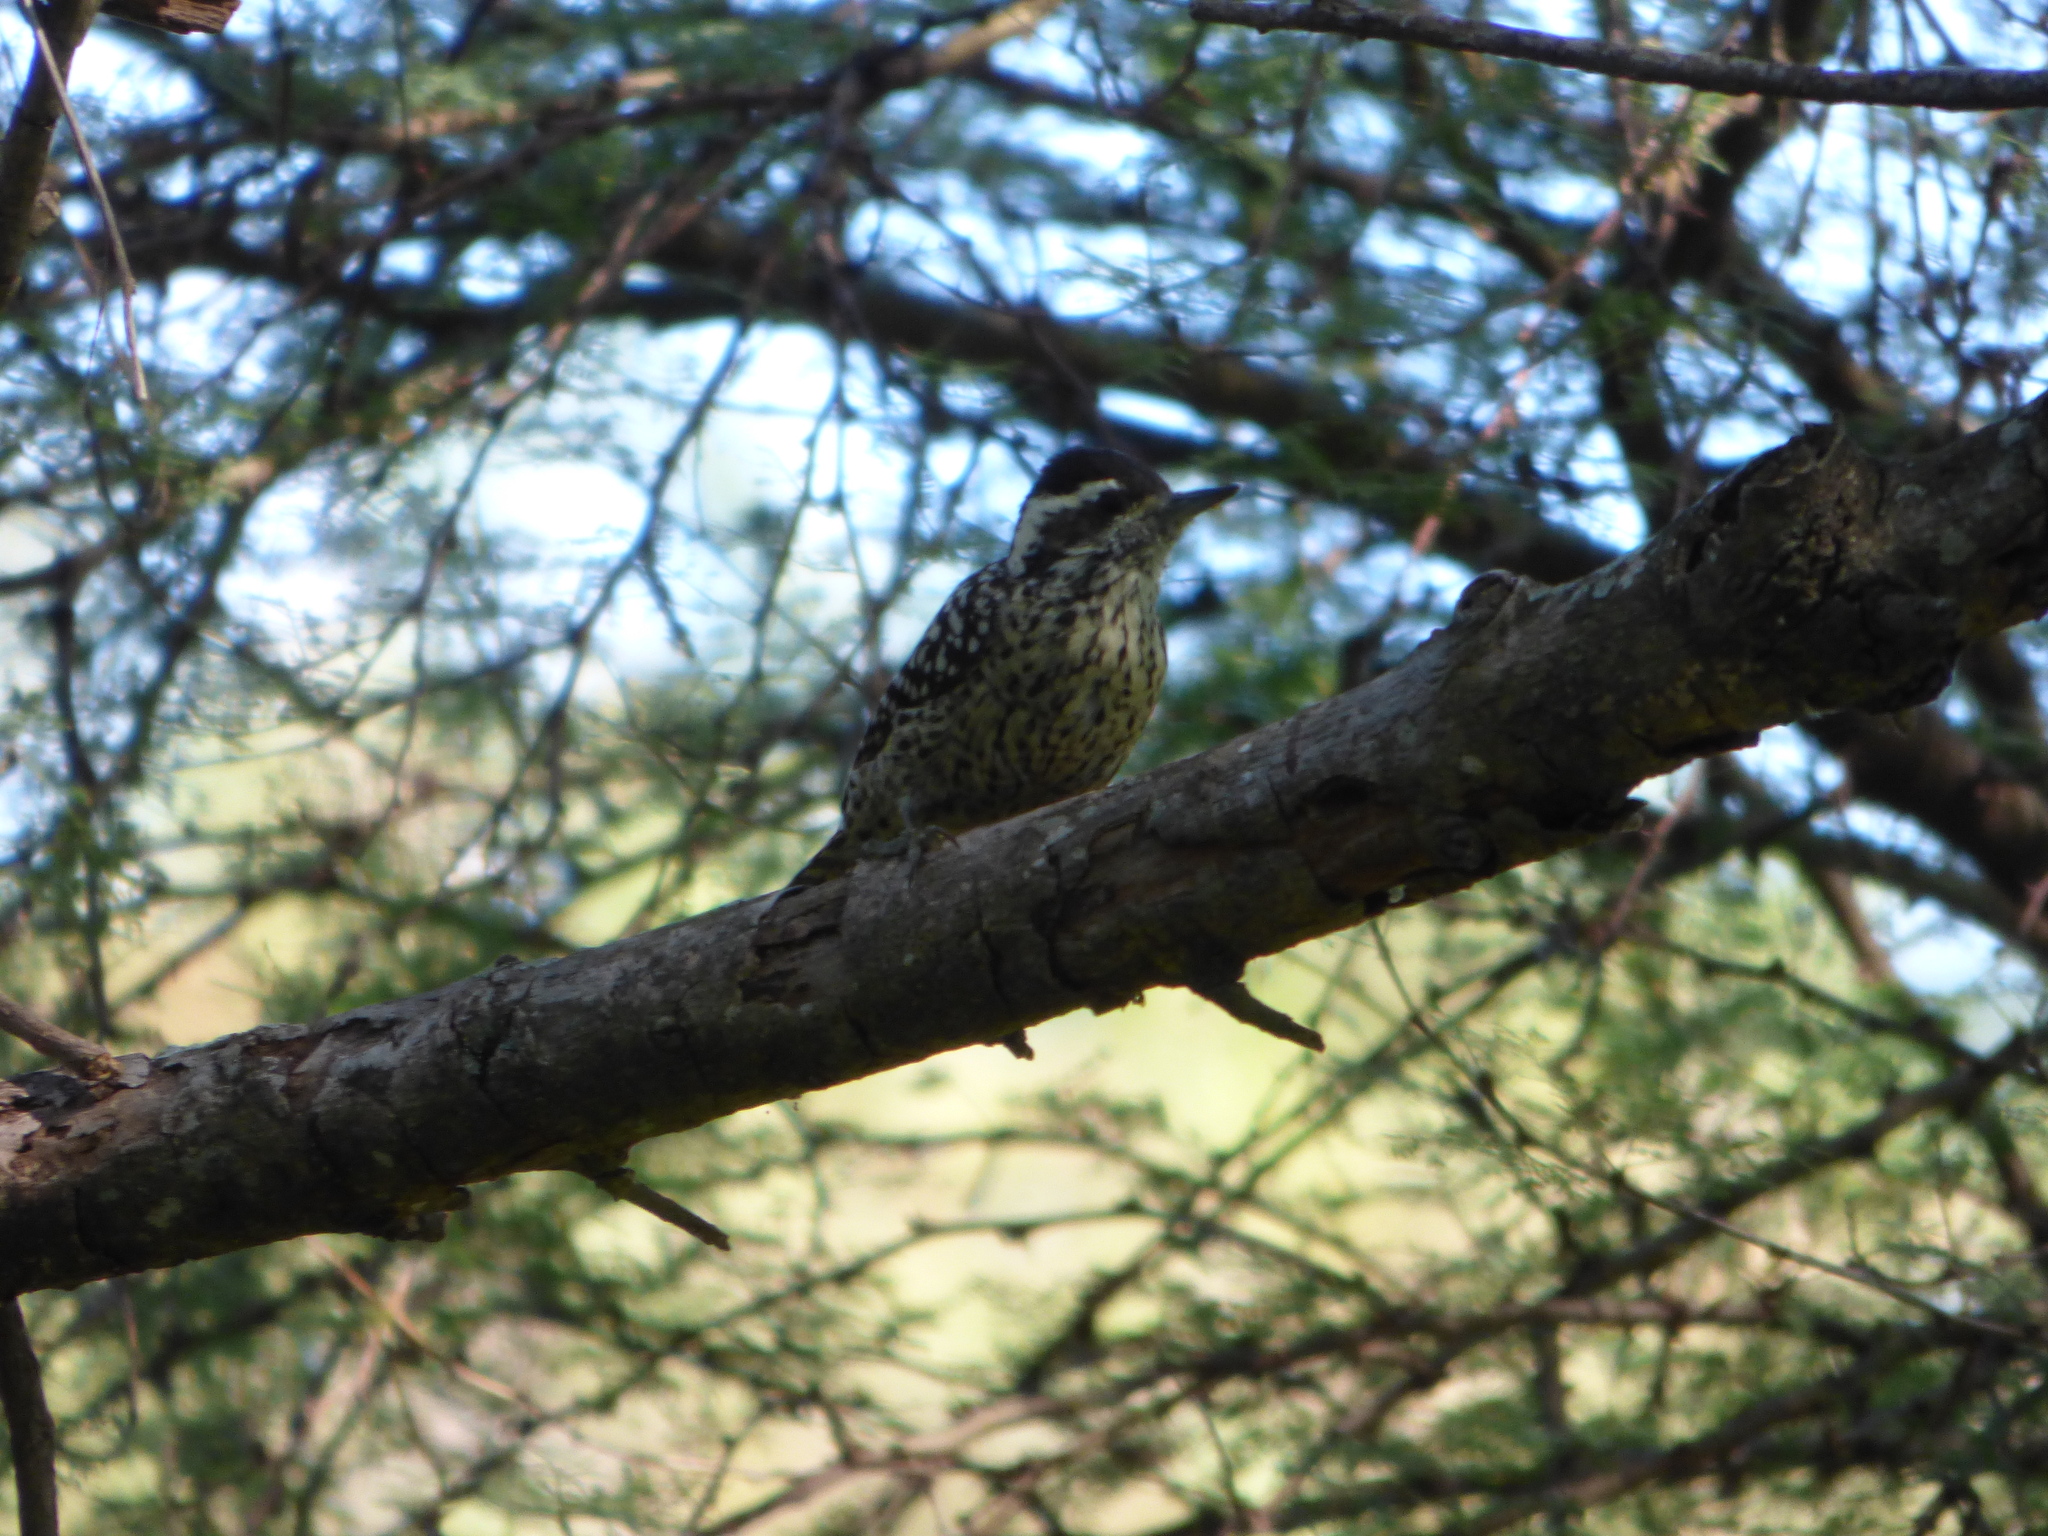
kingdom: Animalia
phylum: Chordata
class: Aves
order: Piciformes
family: Picidae
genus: Veniliornis
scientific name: Veniliornis mixtus
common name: Checkered woodpecker
